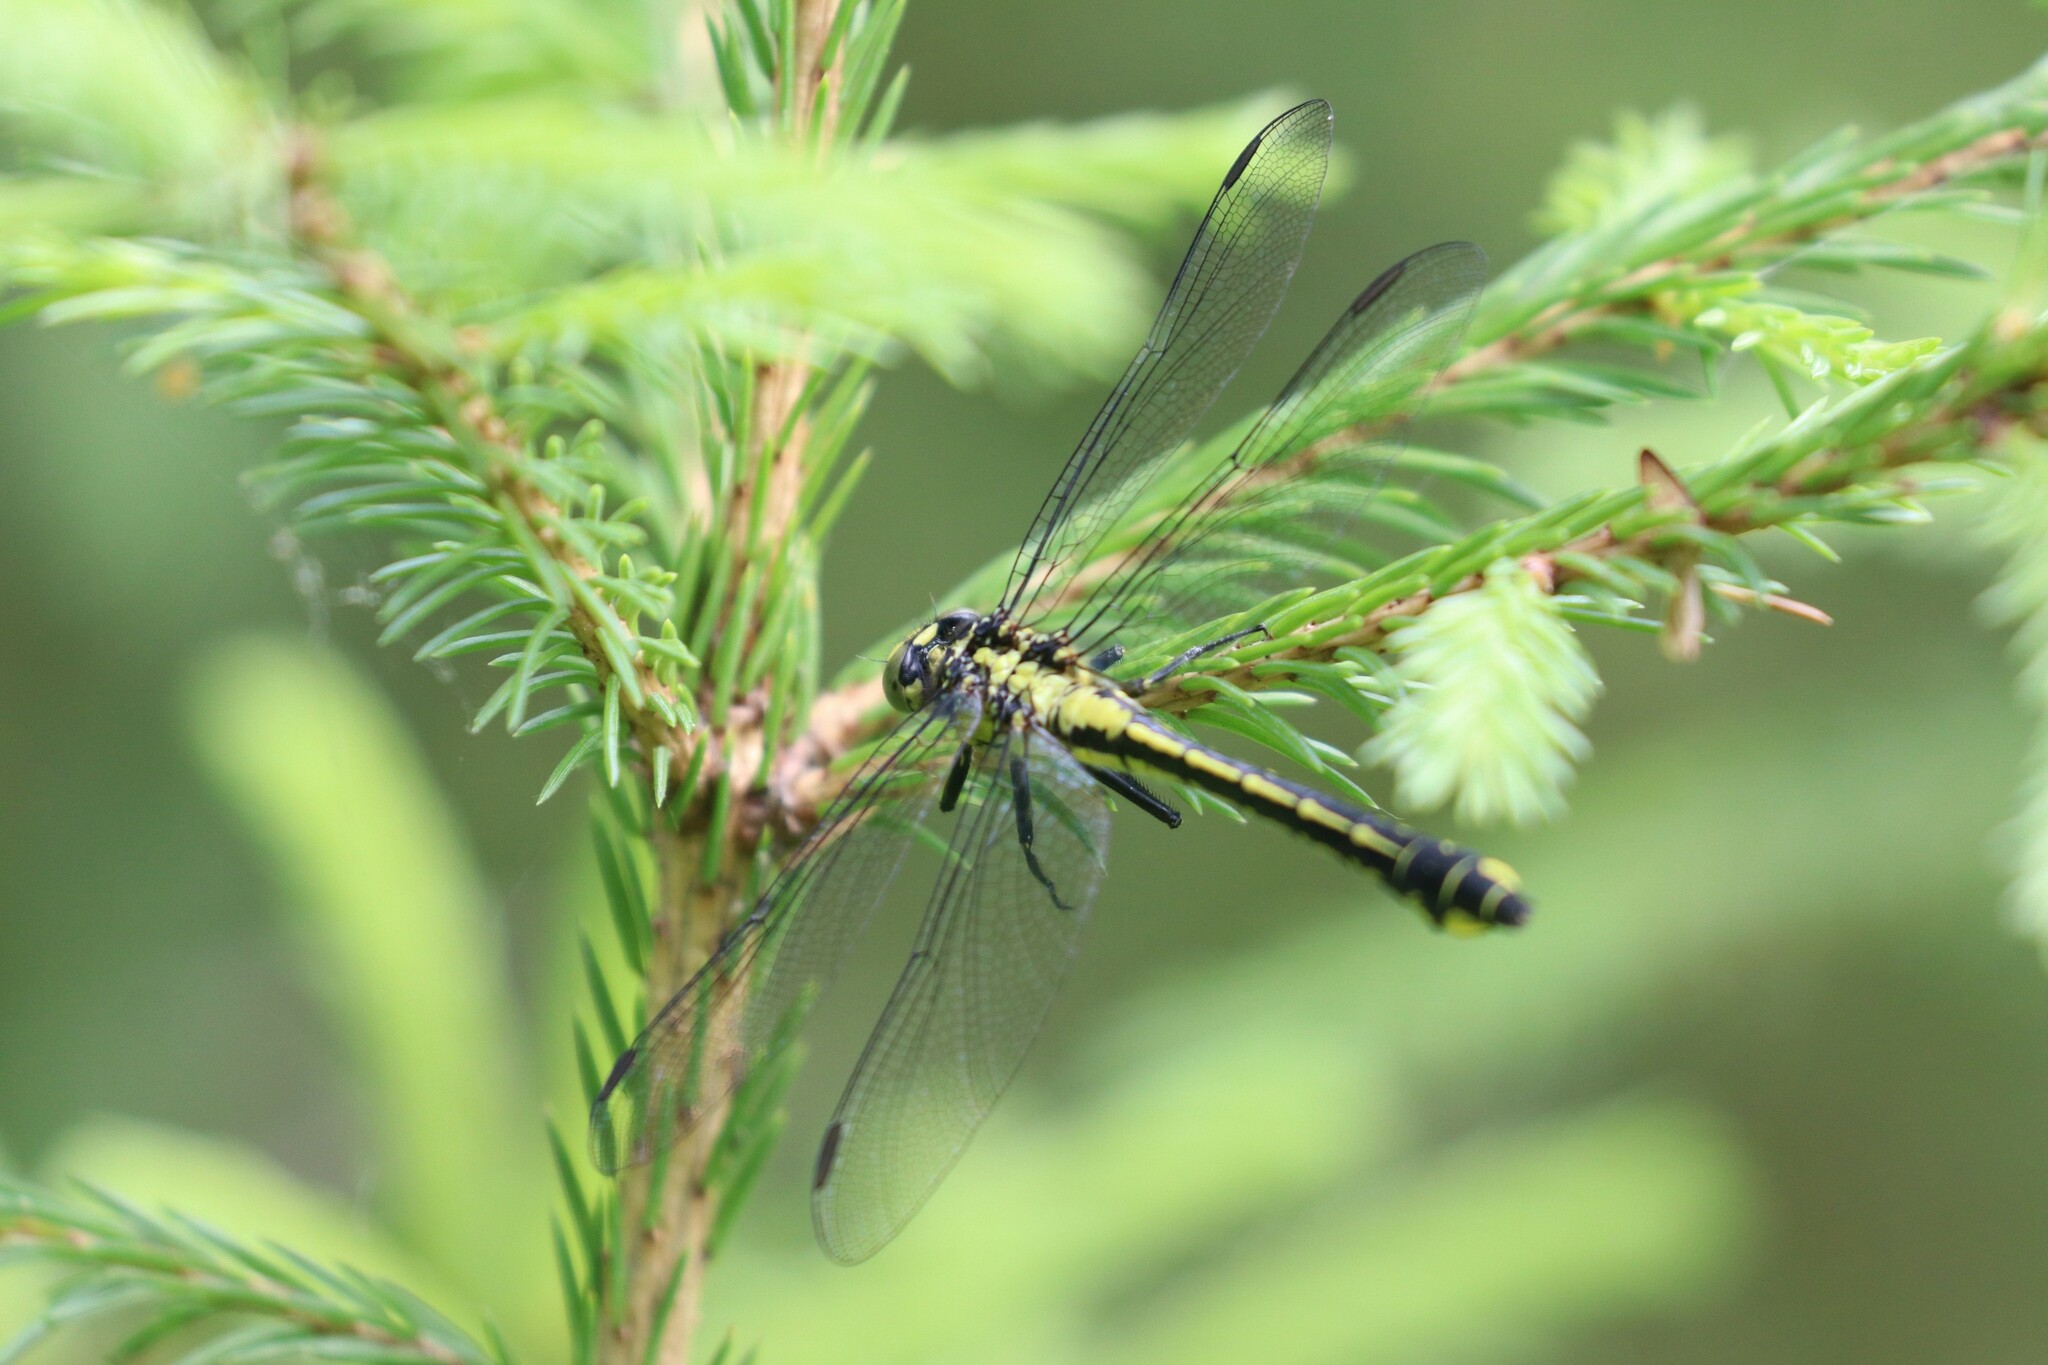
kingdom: Animalia
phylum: Arthropoda
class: Insecta
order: Odonata
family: Gomphidae
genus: Gomphus
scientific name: Gomphus vulgatissimus
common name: Club-tailed dragonfly
